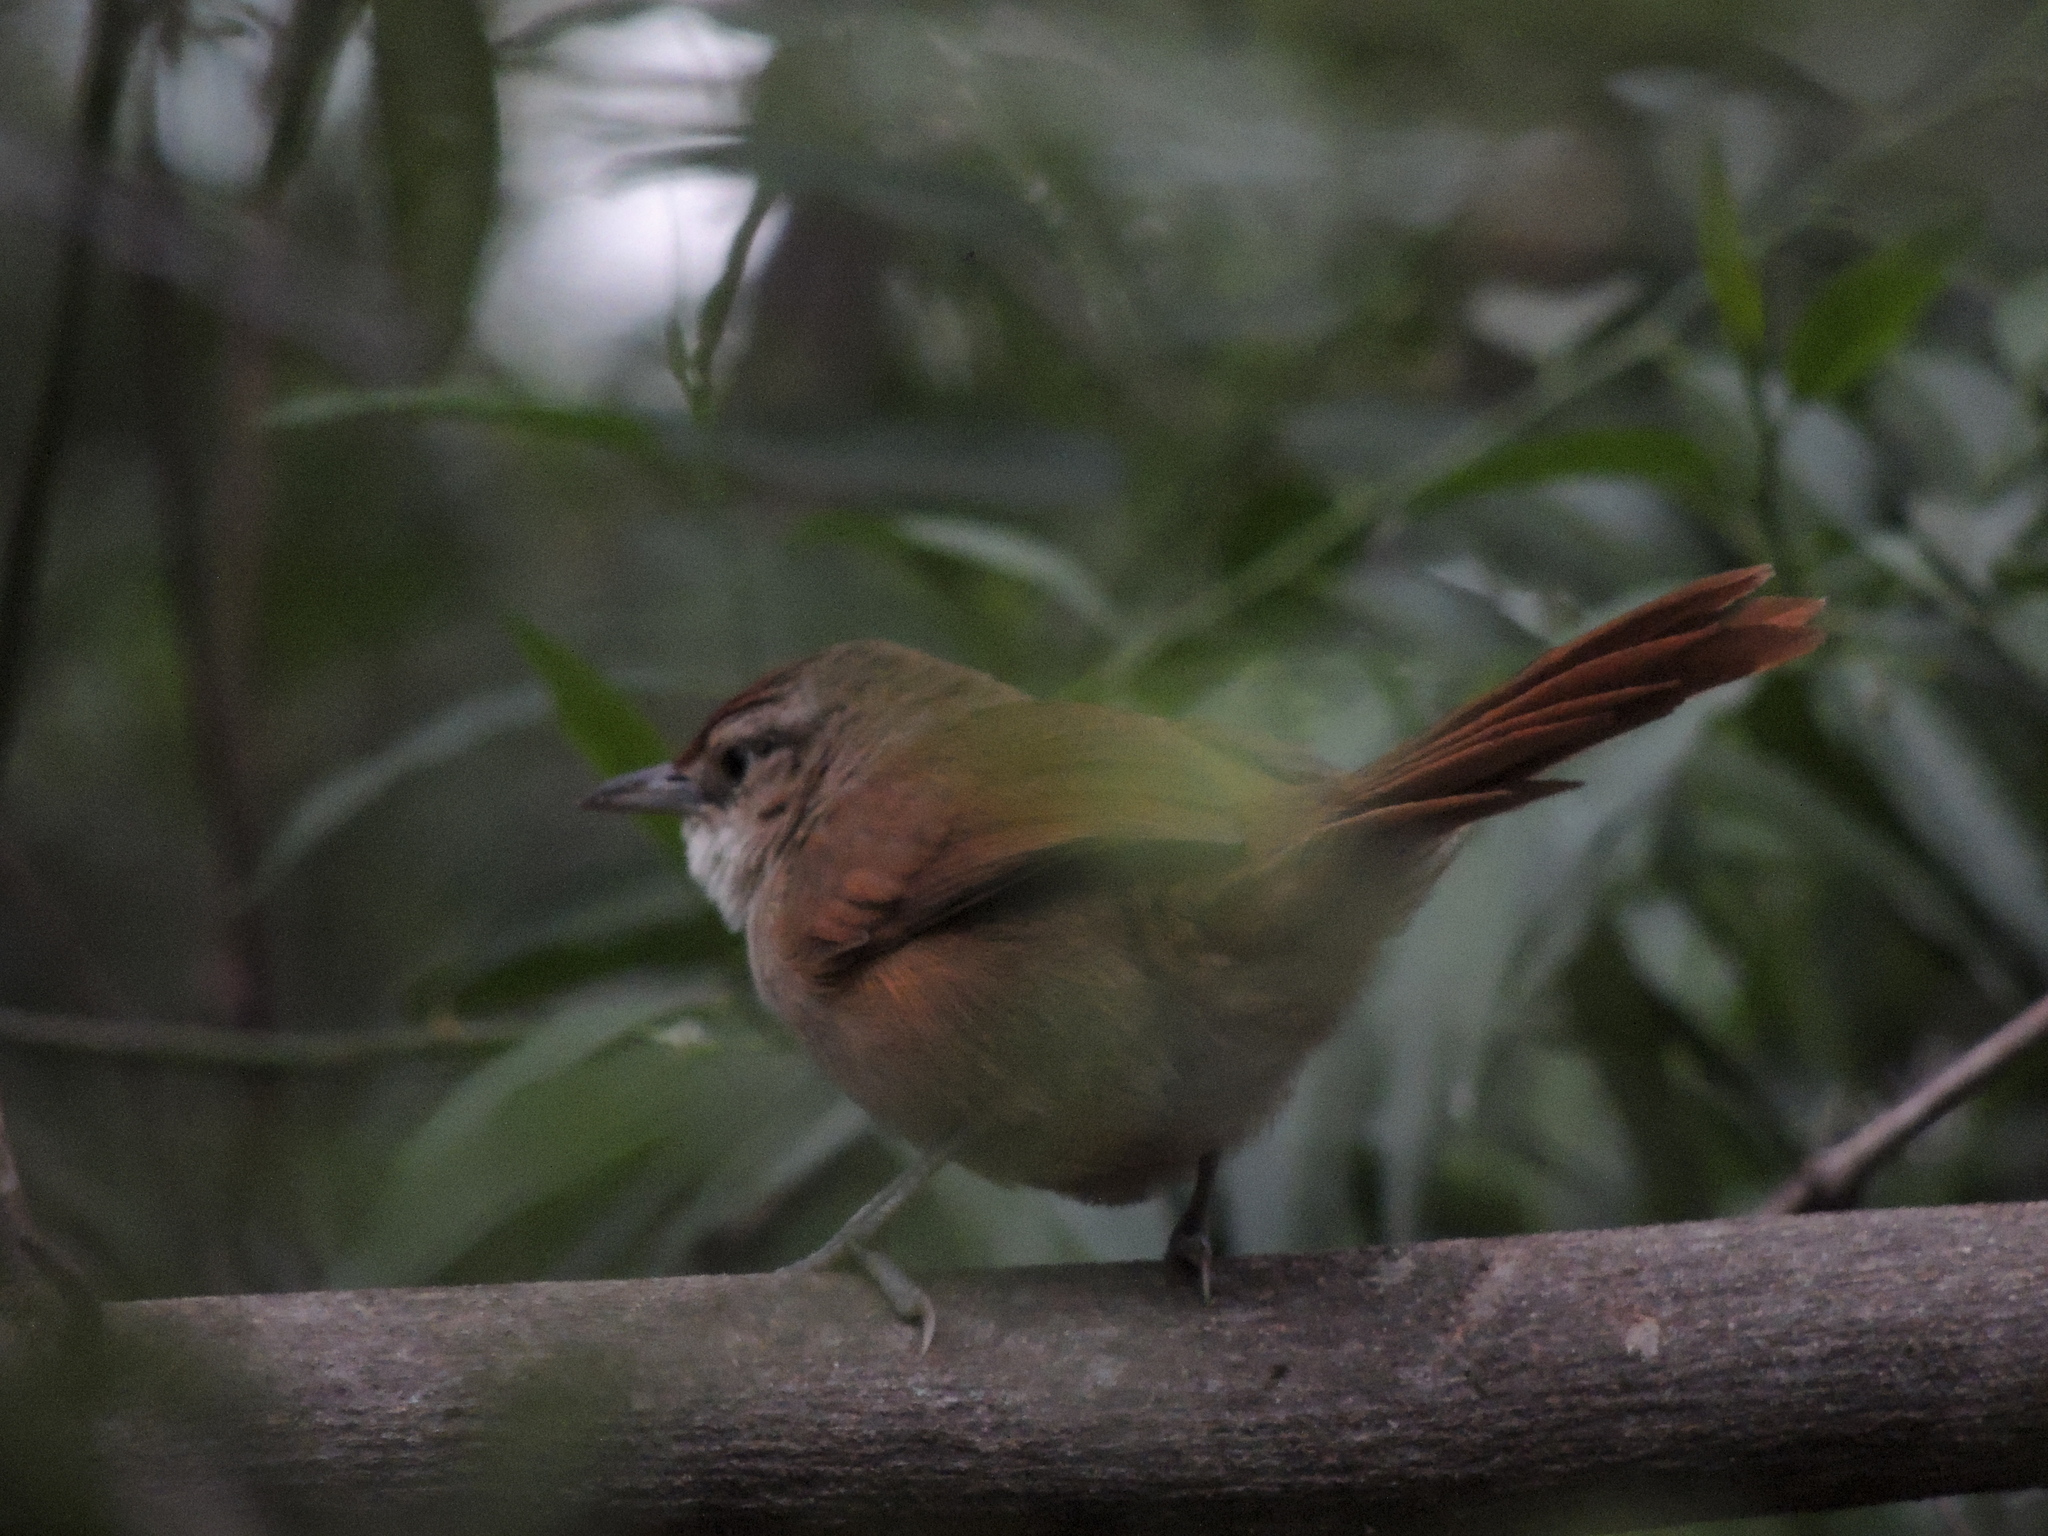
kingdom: Animalia
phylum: Chordata
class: Aves
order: Passeriformes
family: Furnariidae
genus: Phacellodomus
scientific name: Phacellodomus rufifrons
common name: Rufous-fronted thornbird
